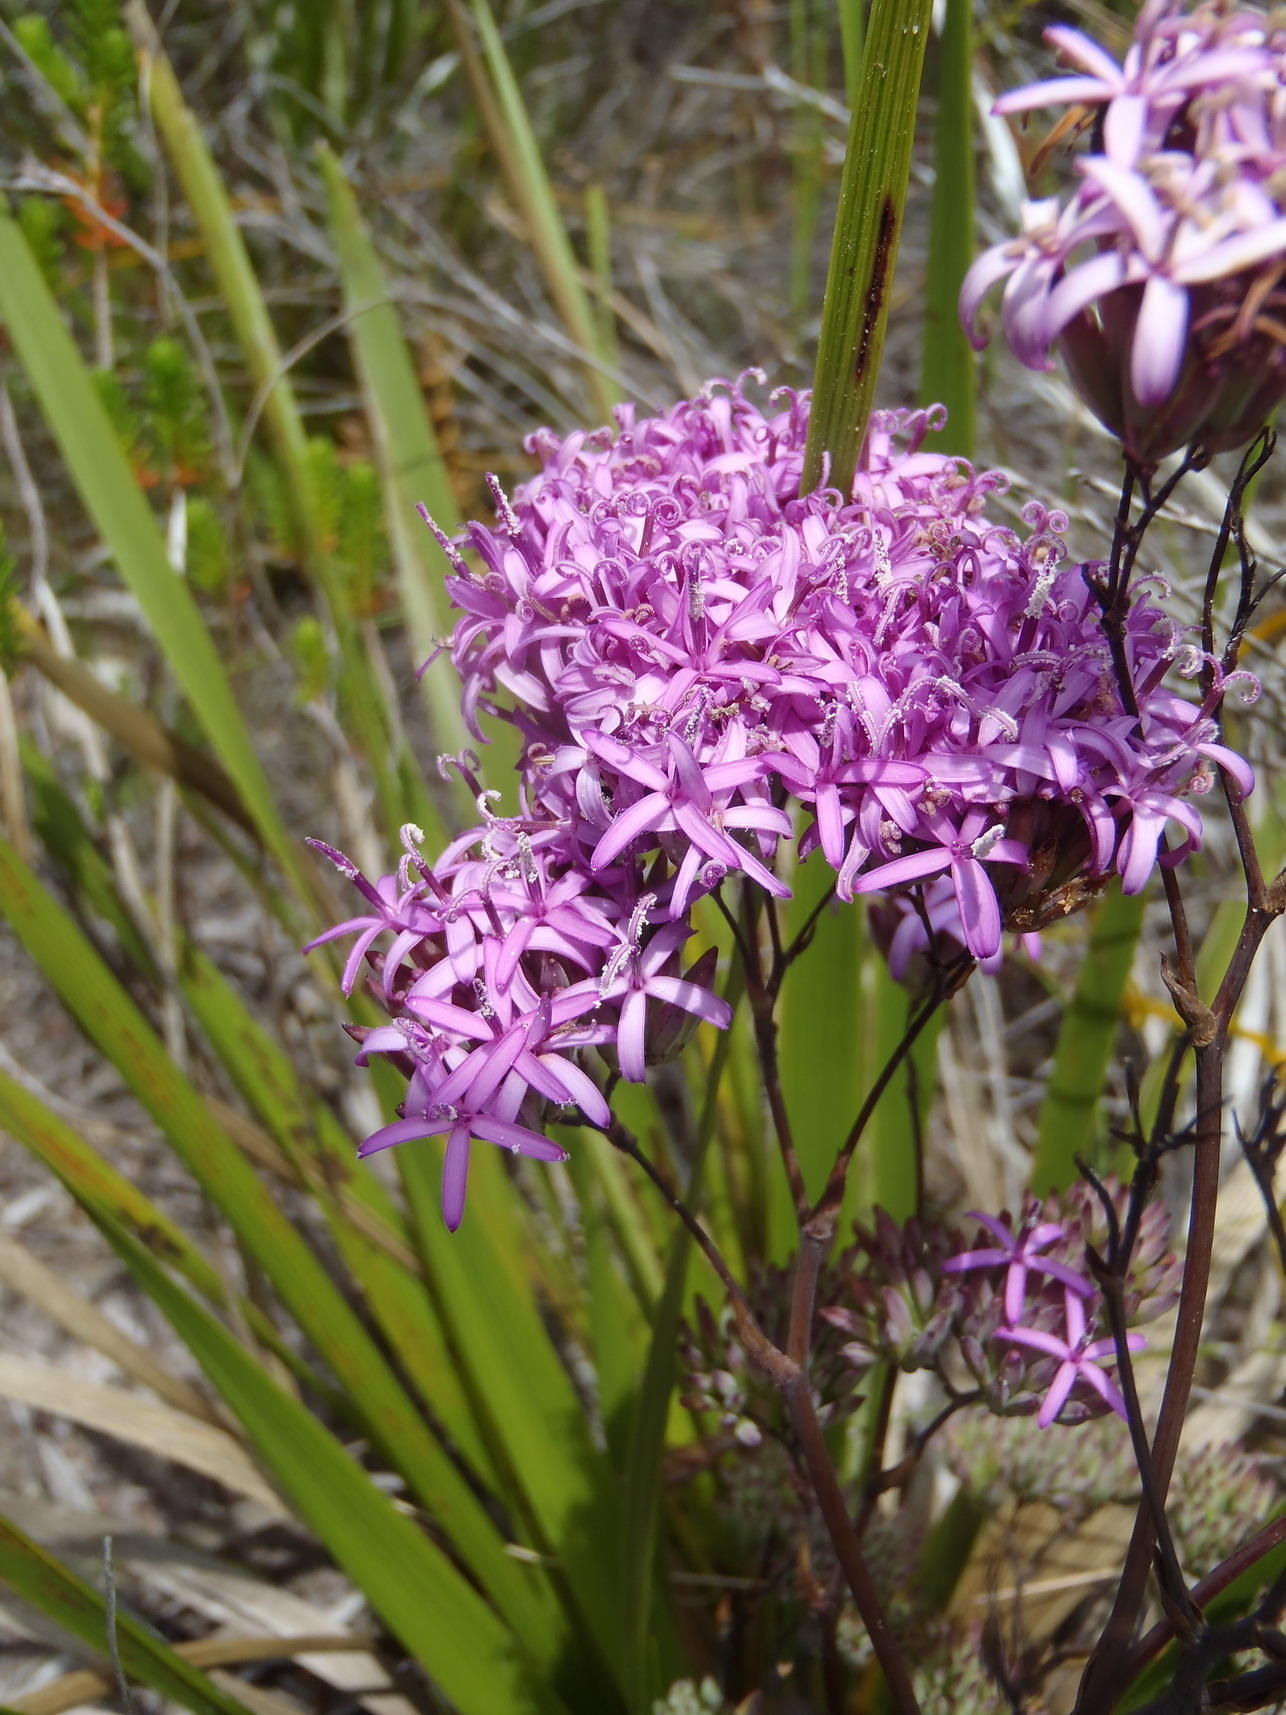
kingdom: Plantae
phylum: Tracheophyta
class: Magnoliopsida
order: Asterales
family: Asteraceae
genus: Corymbium
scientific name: Corymbium glabrum
